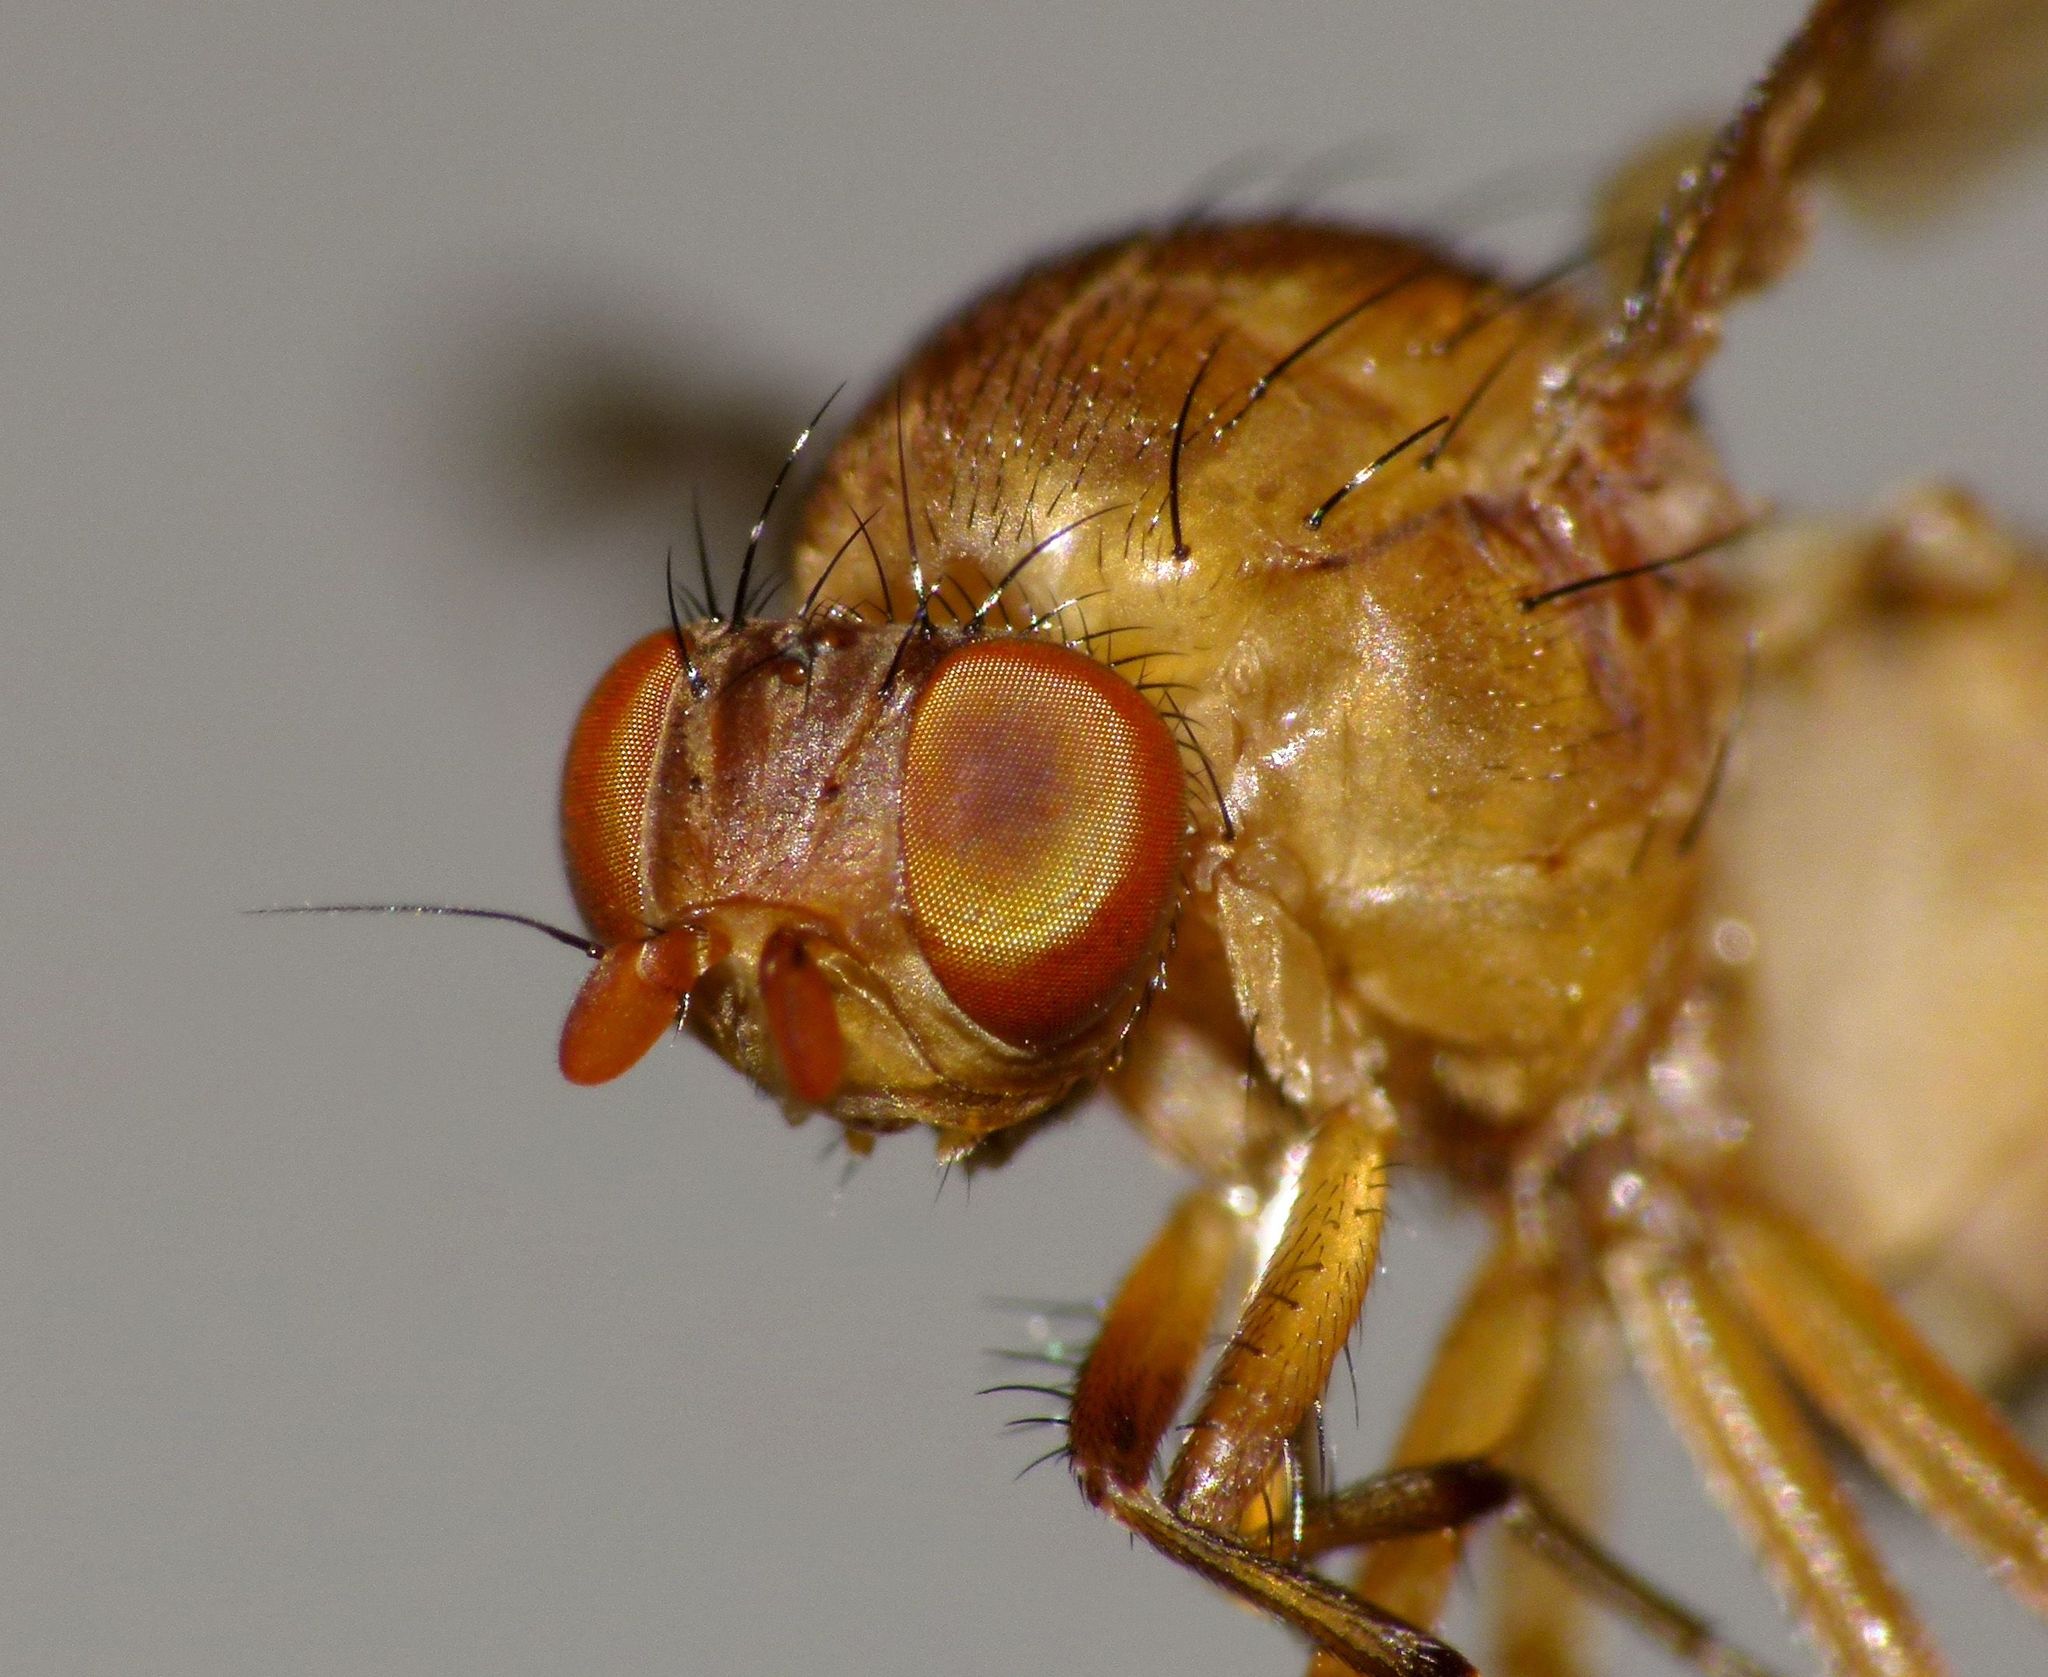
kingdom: Animalia
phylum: Arthropoda
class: Insecta
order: Diptera
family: Lauxaniidae
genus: Sapromyza
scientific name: Sapromyza simillima
